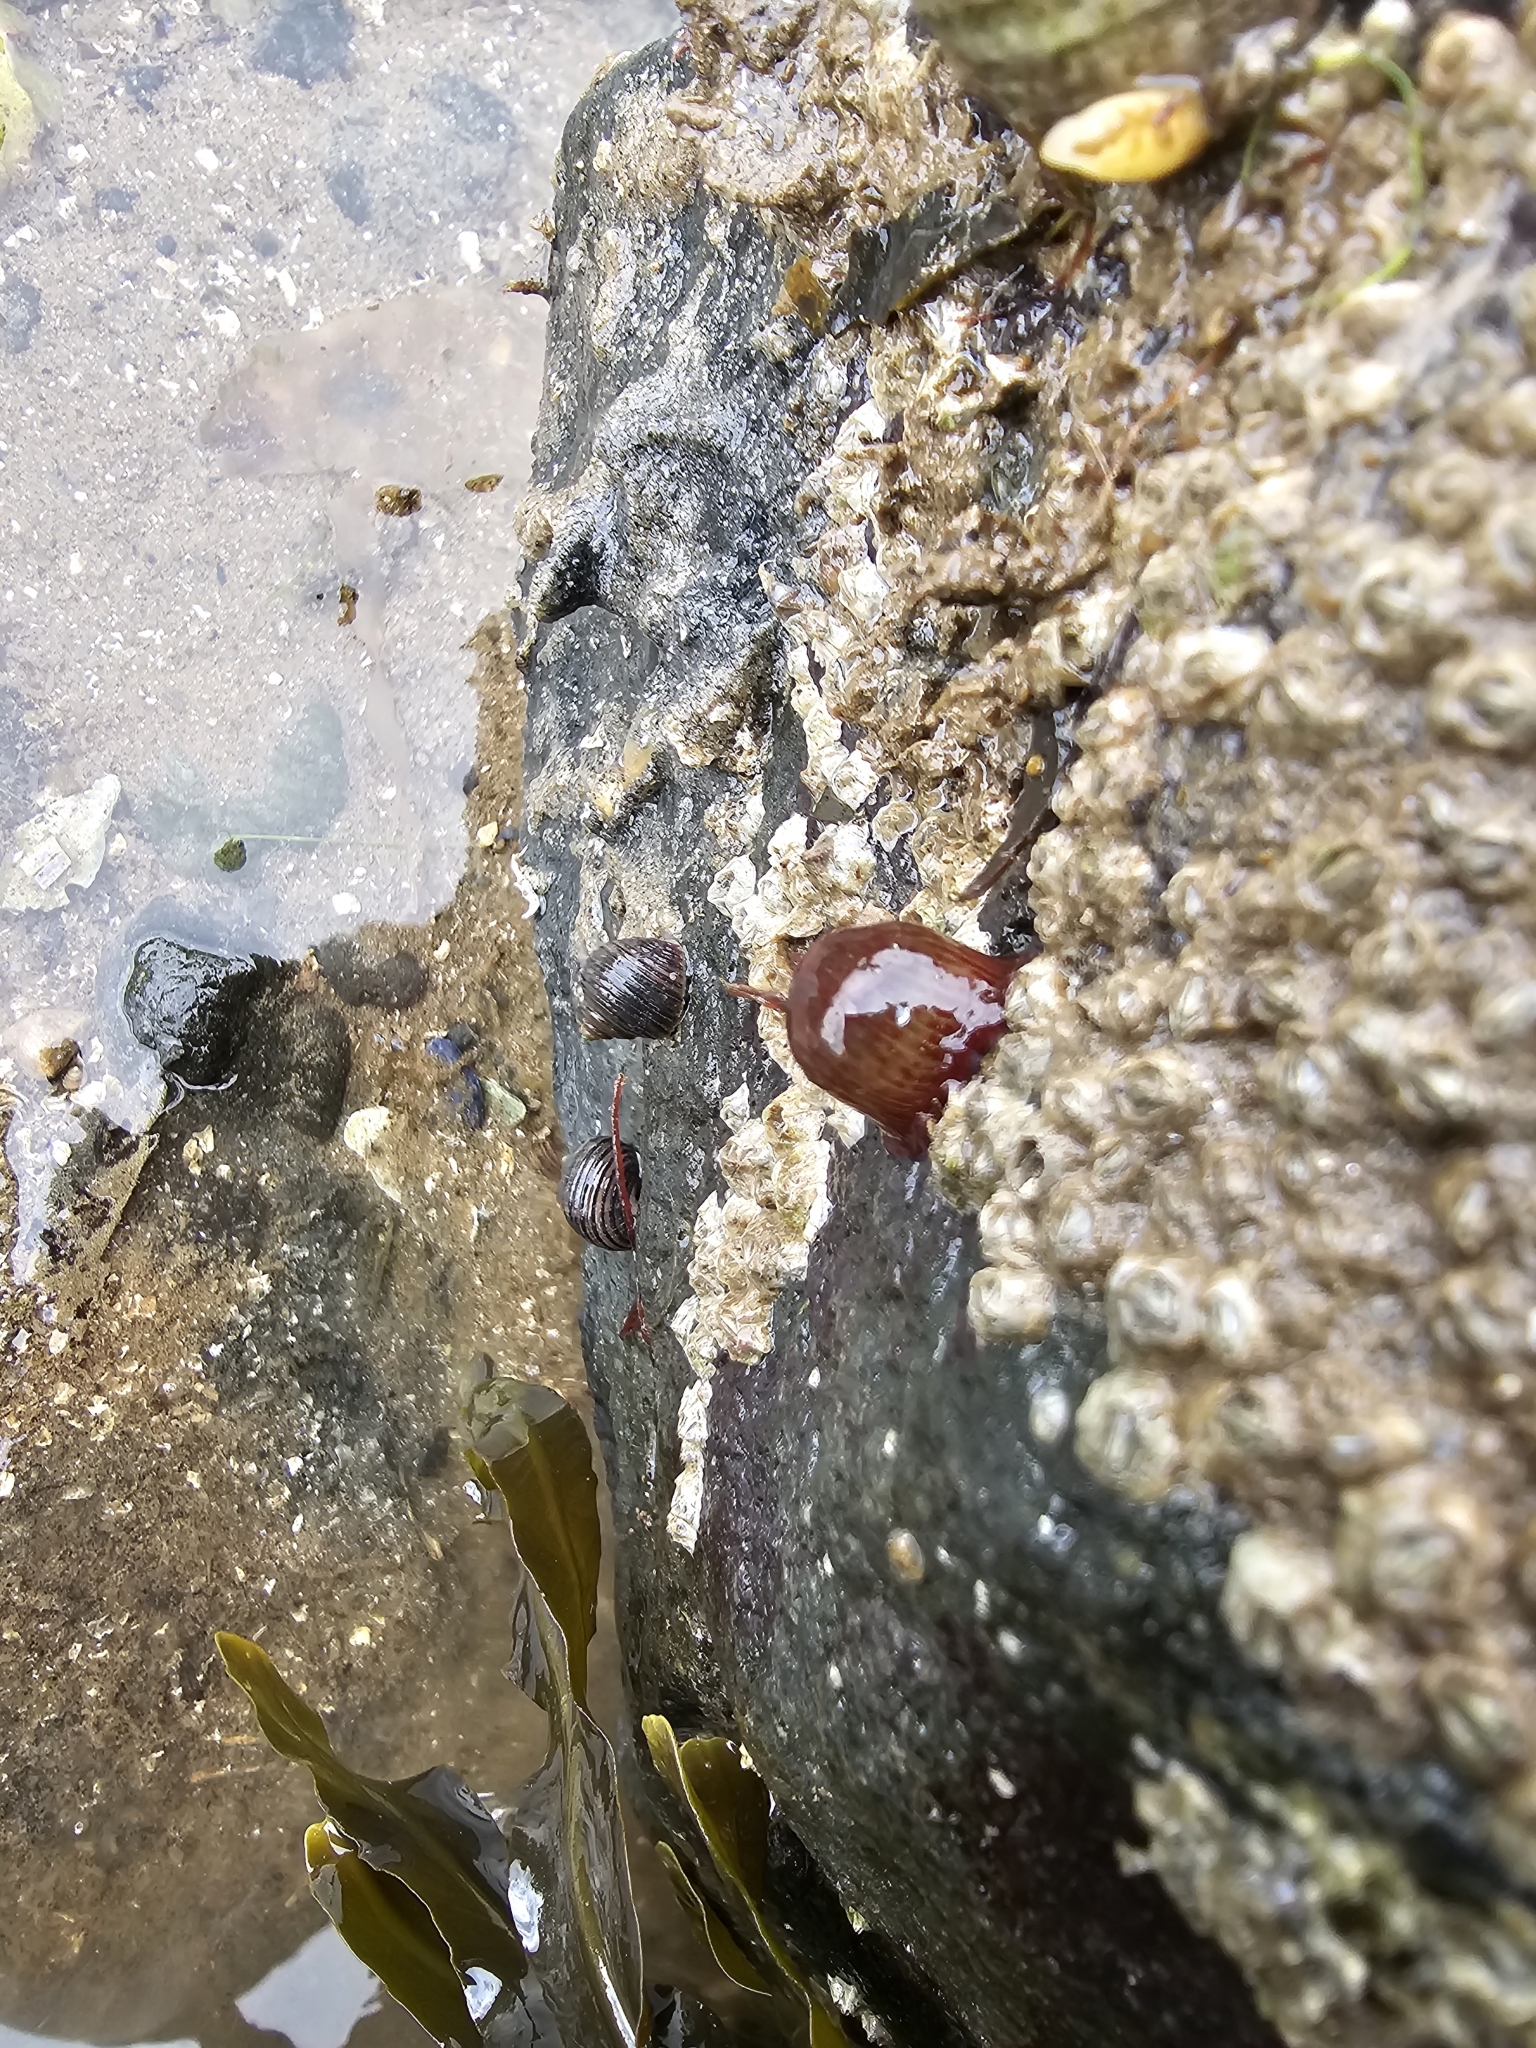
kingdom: Animalia
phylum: Cnidaria
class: Anthozoa
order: Actiniaria
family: Actiniidae
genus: Actinia
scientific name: Actinia equina
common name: Beadlet anemone
